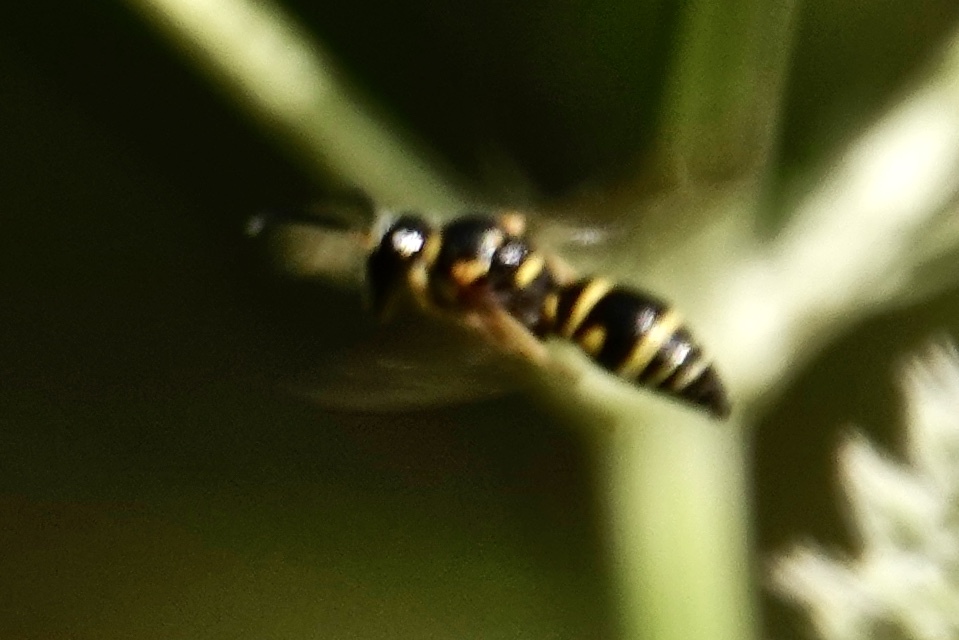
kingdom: Animalia
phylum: Arthropoda
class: Insecta
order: Hymenoptera
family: Eumenidae
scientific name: Eumenidae
